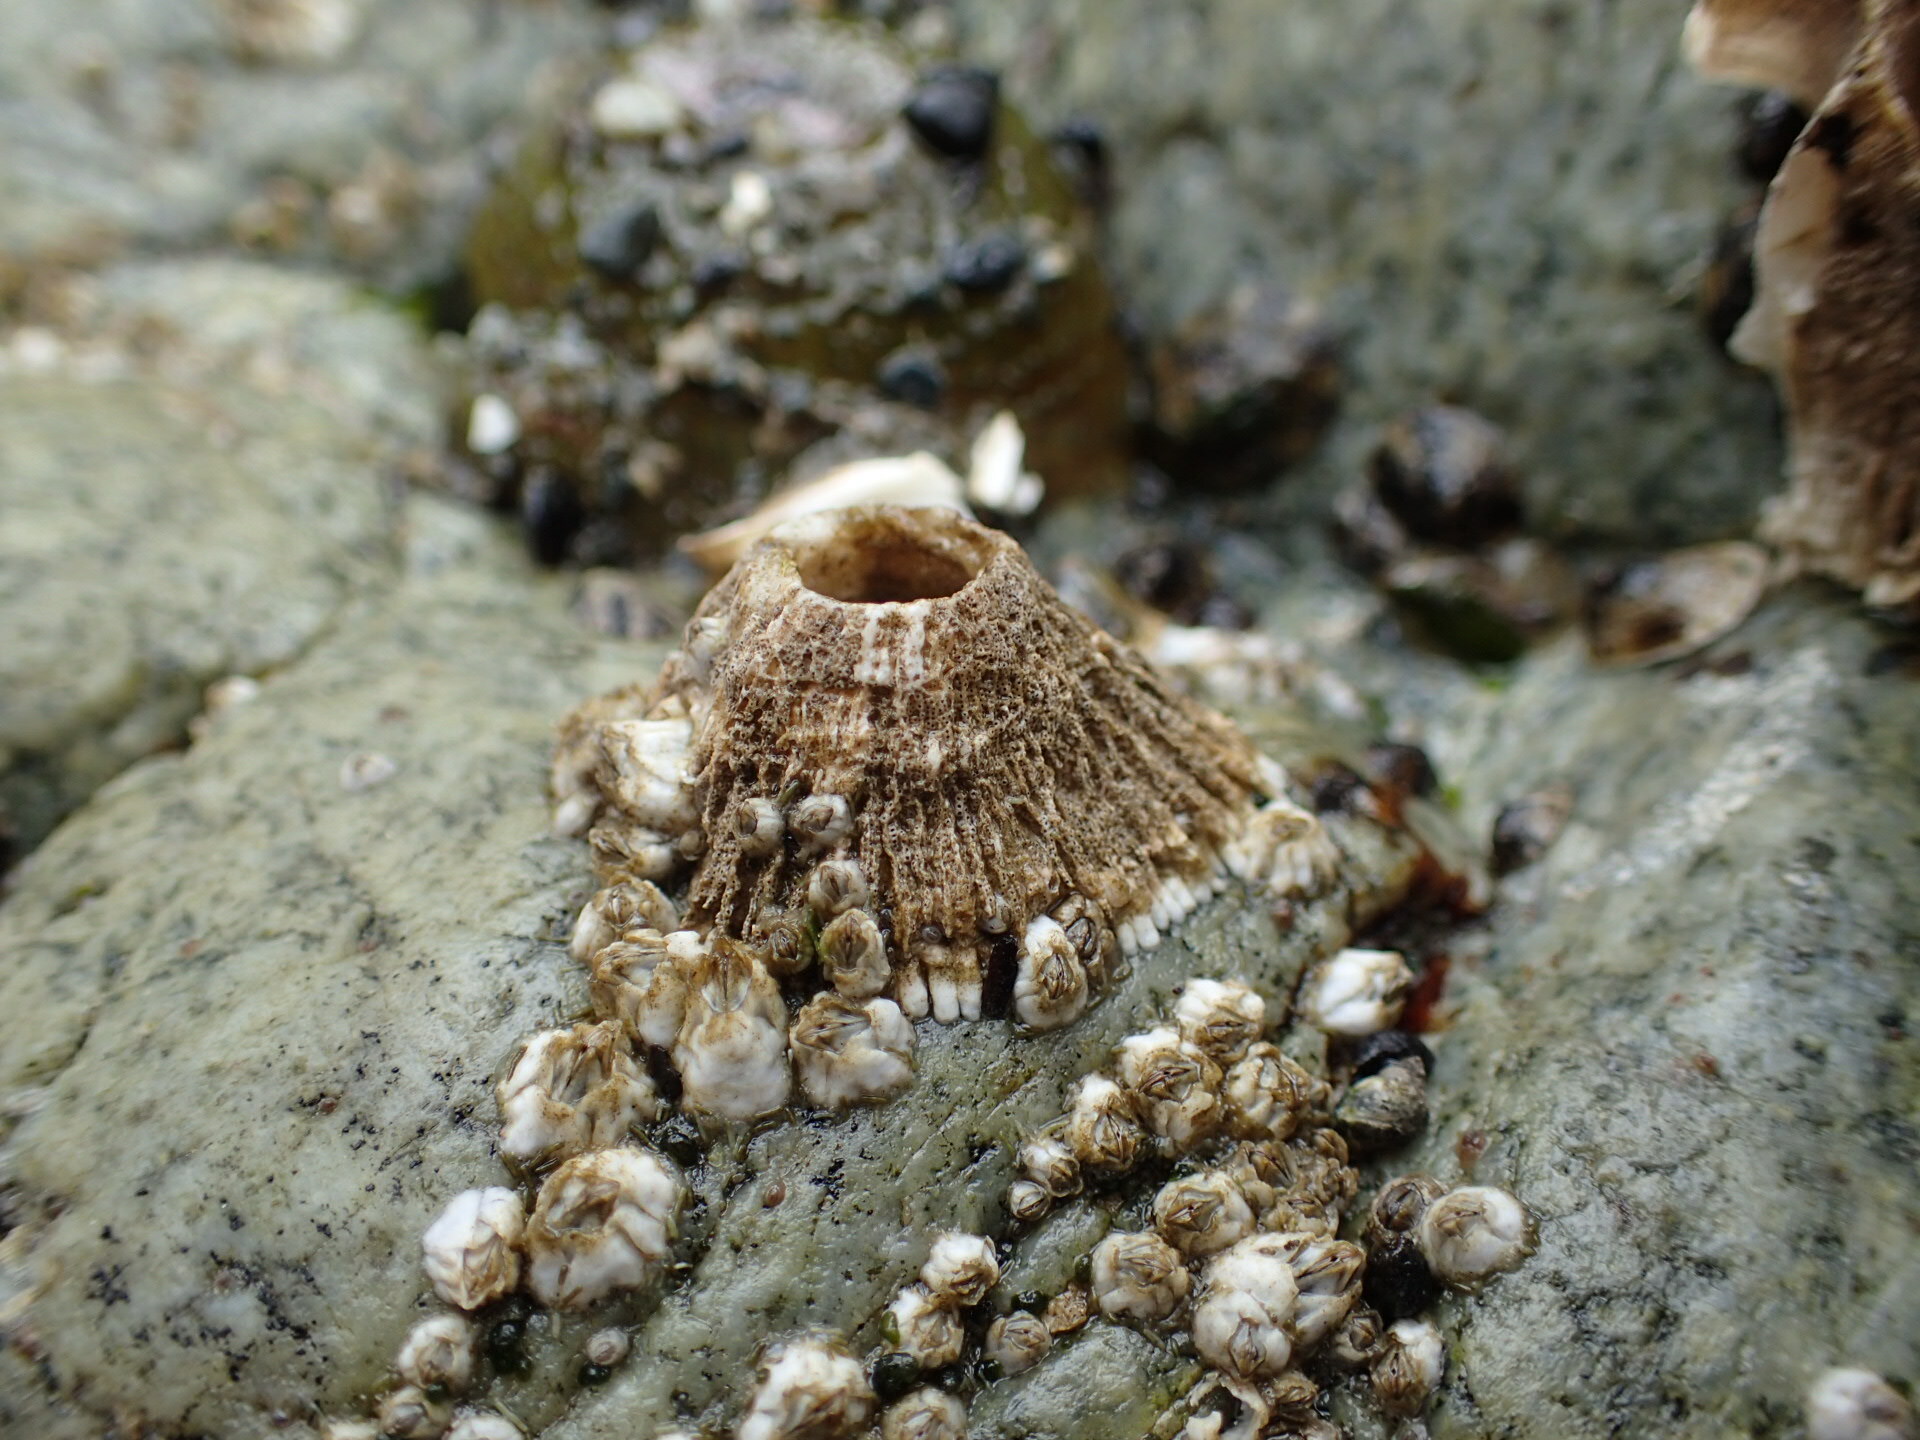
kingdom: Animalia
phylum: Arthropoda
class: Maxillopoda
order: Sessilia
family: Archaeobalanidae
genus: Semibalanus
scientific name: Semibalanus cariosus
